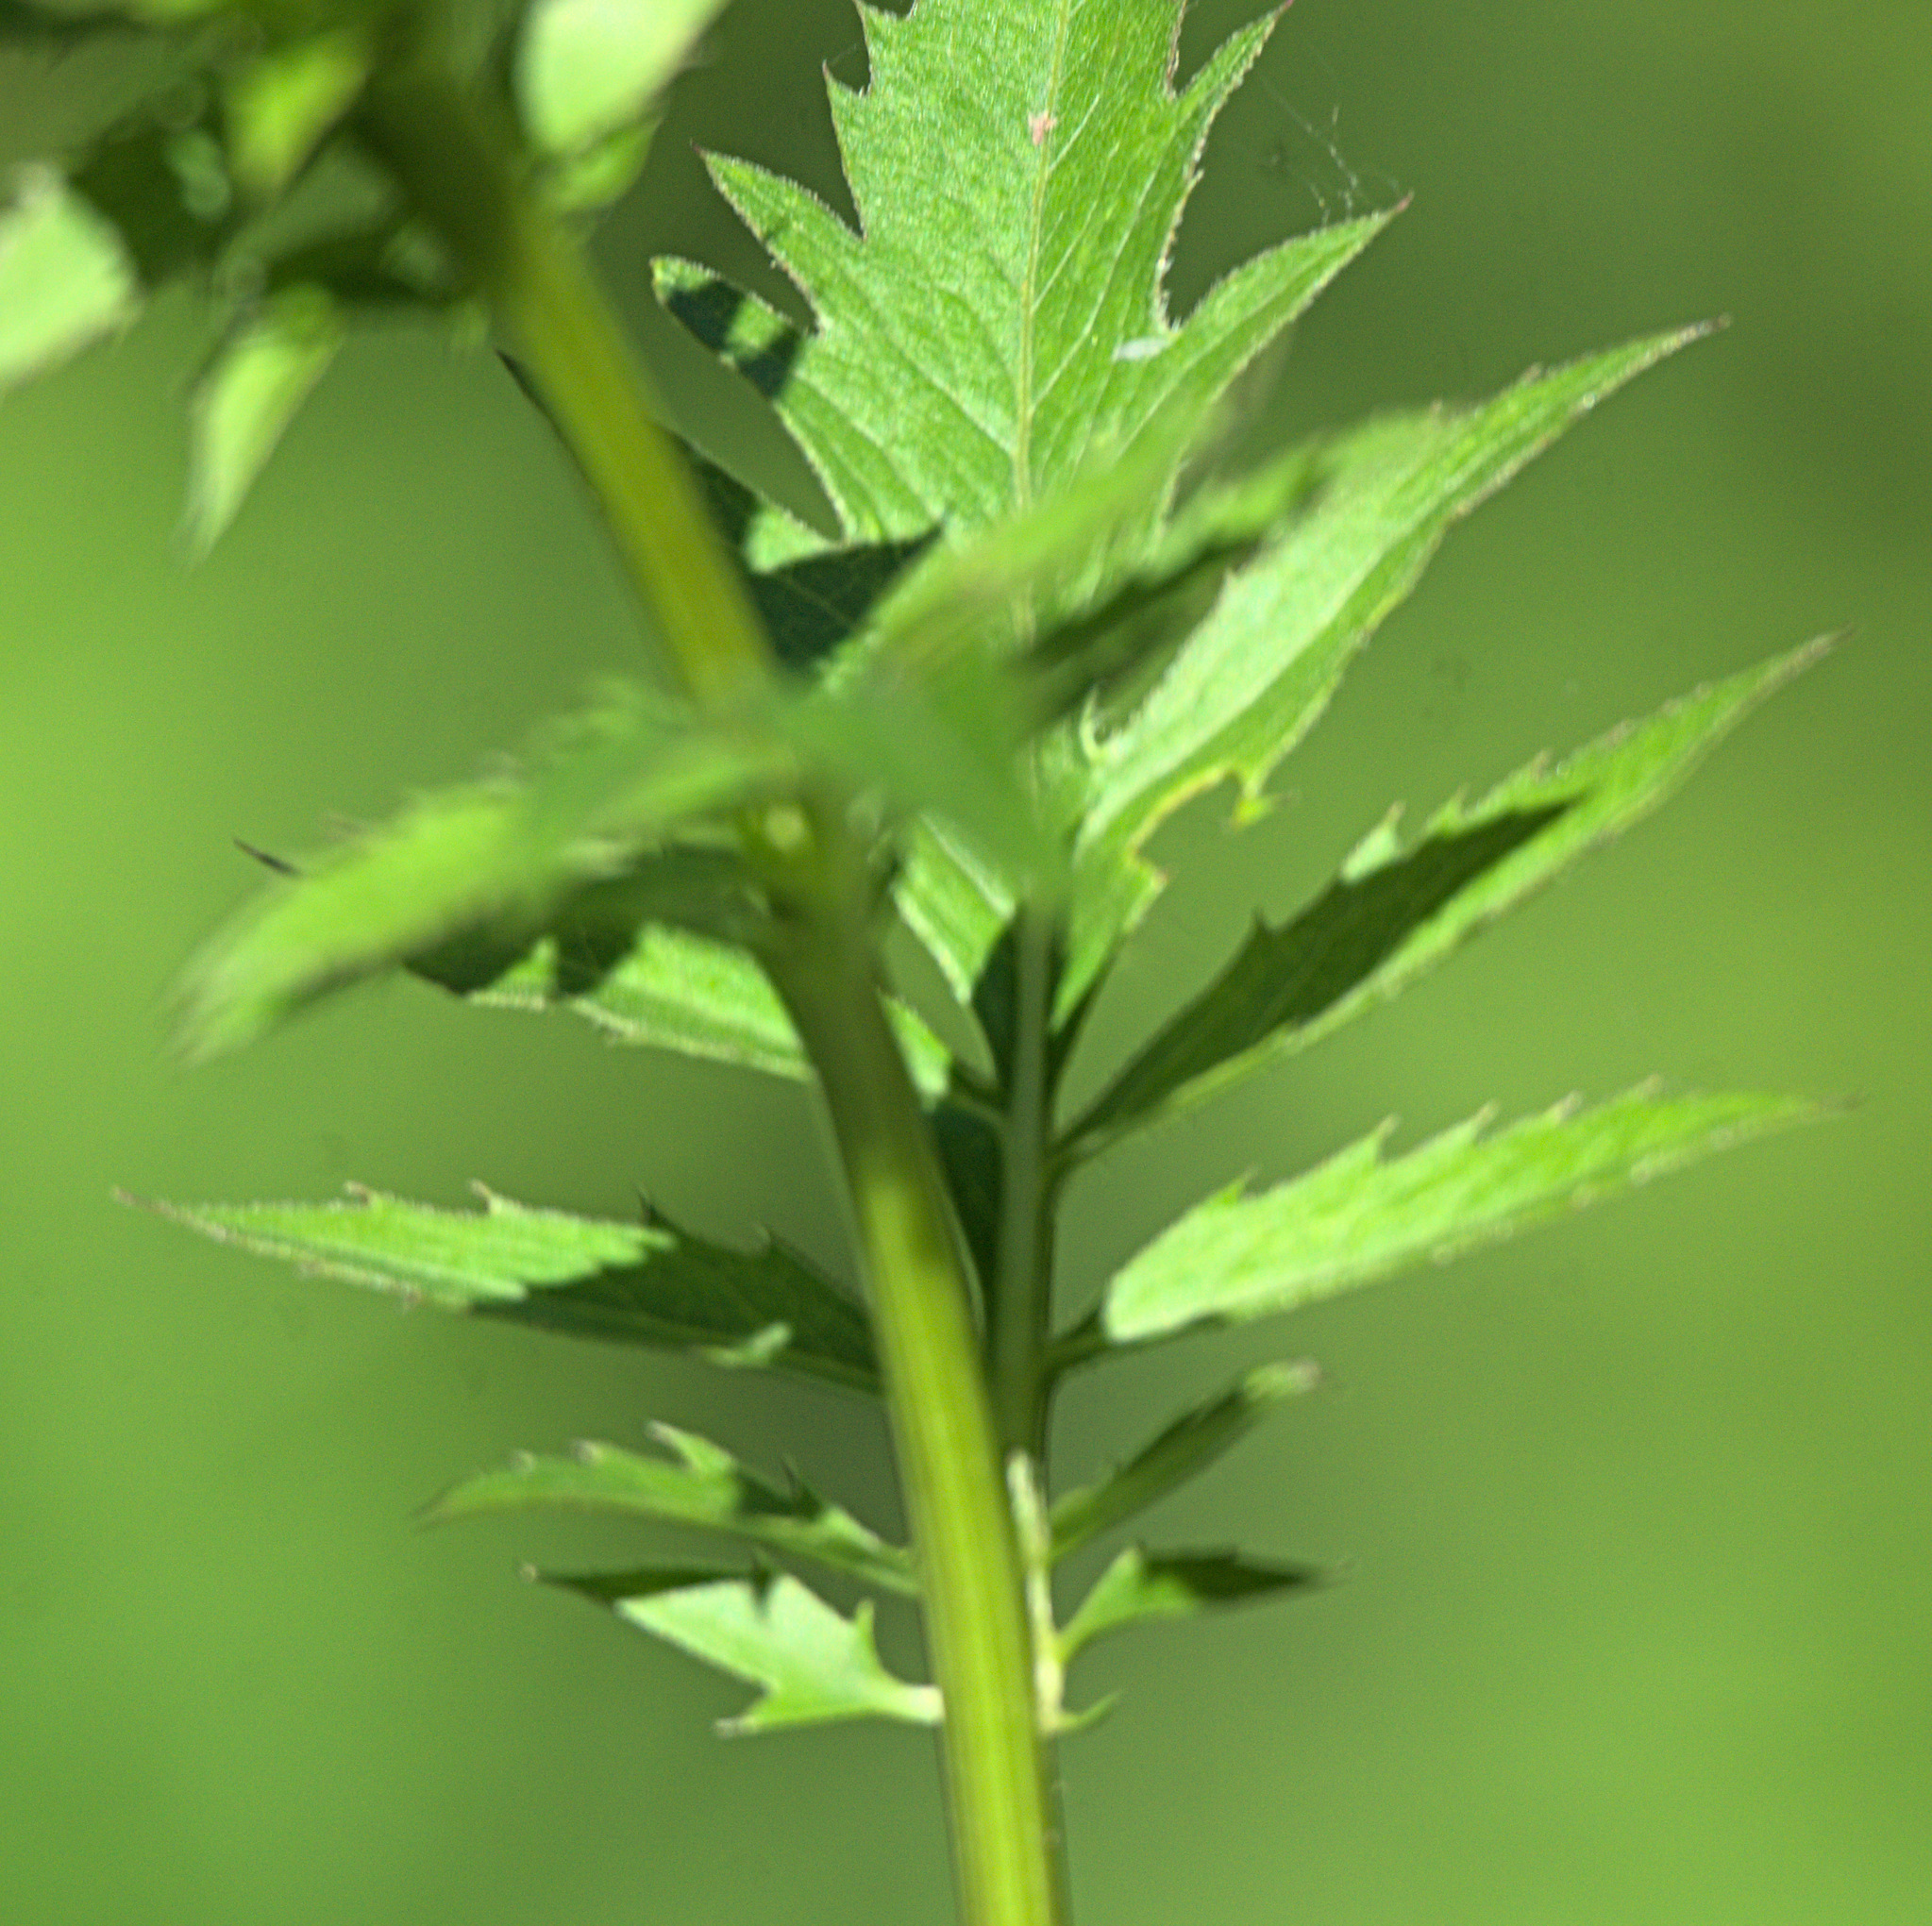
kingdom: Plantae
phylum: Tracheophyta
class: Magnoliopsida
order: Asterales
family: Asteraceae
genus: Serratula
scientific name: Serratula coronata
